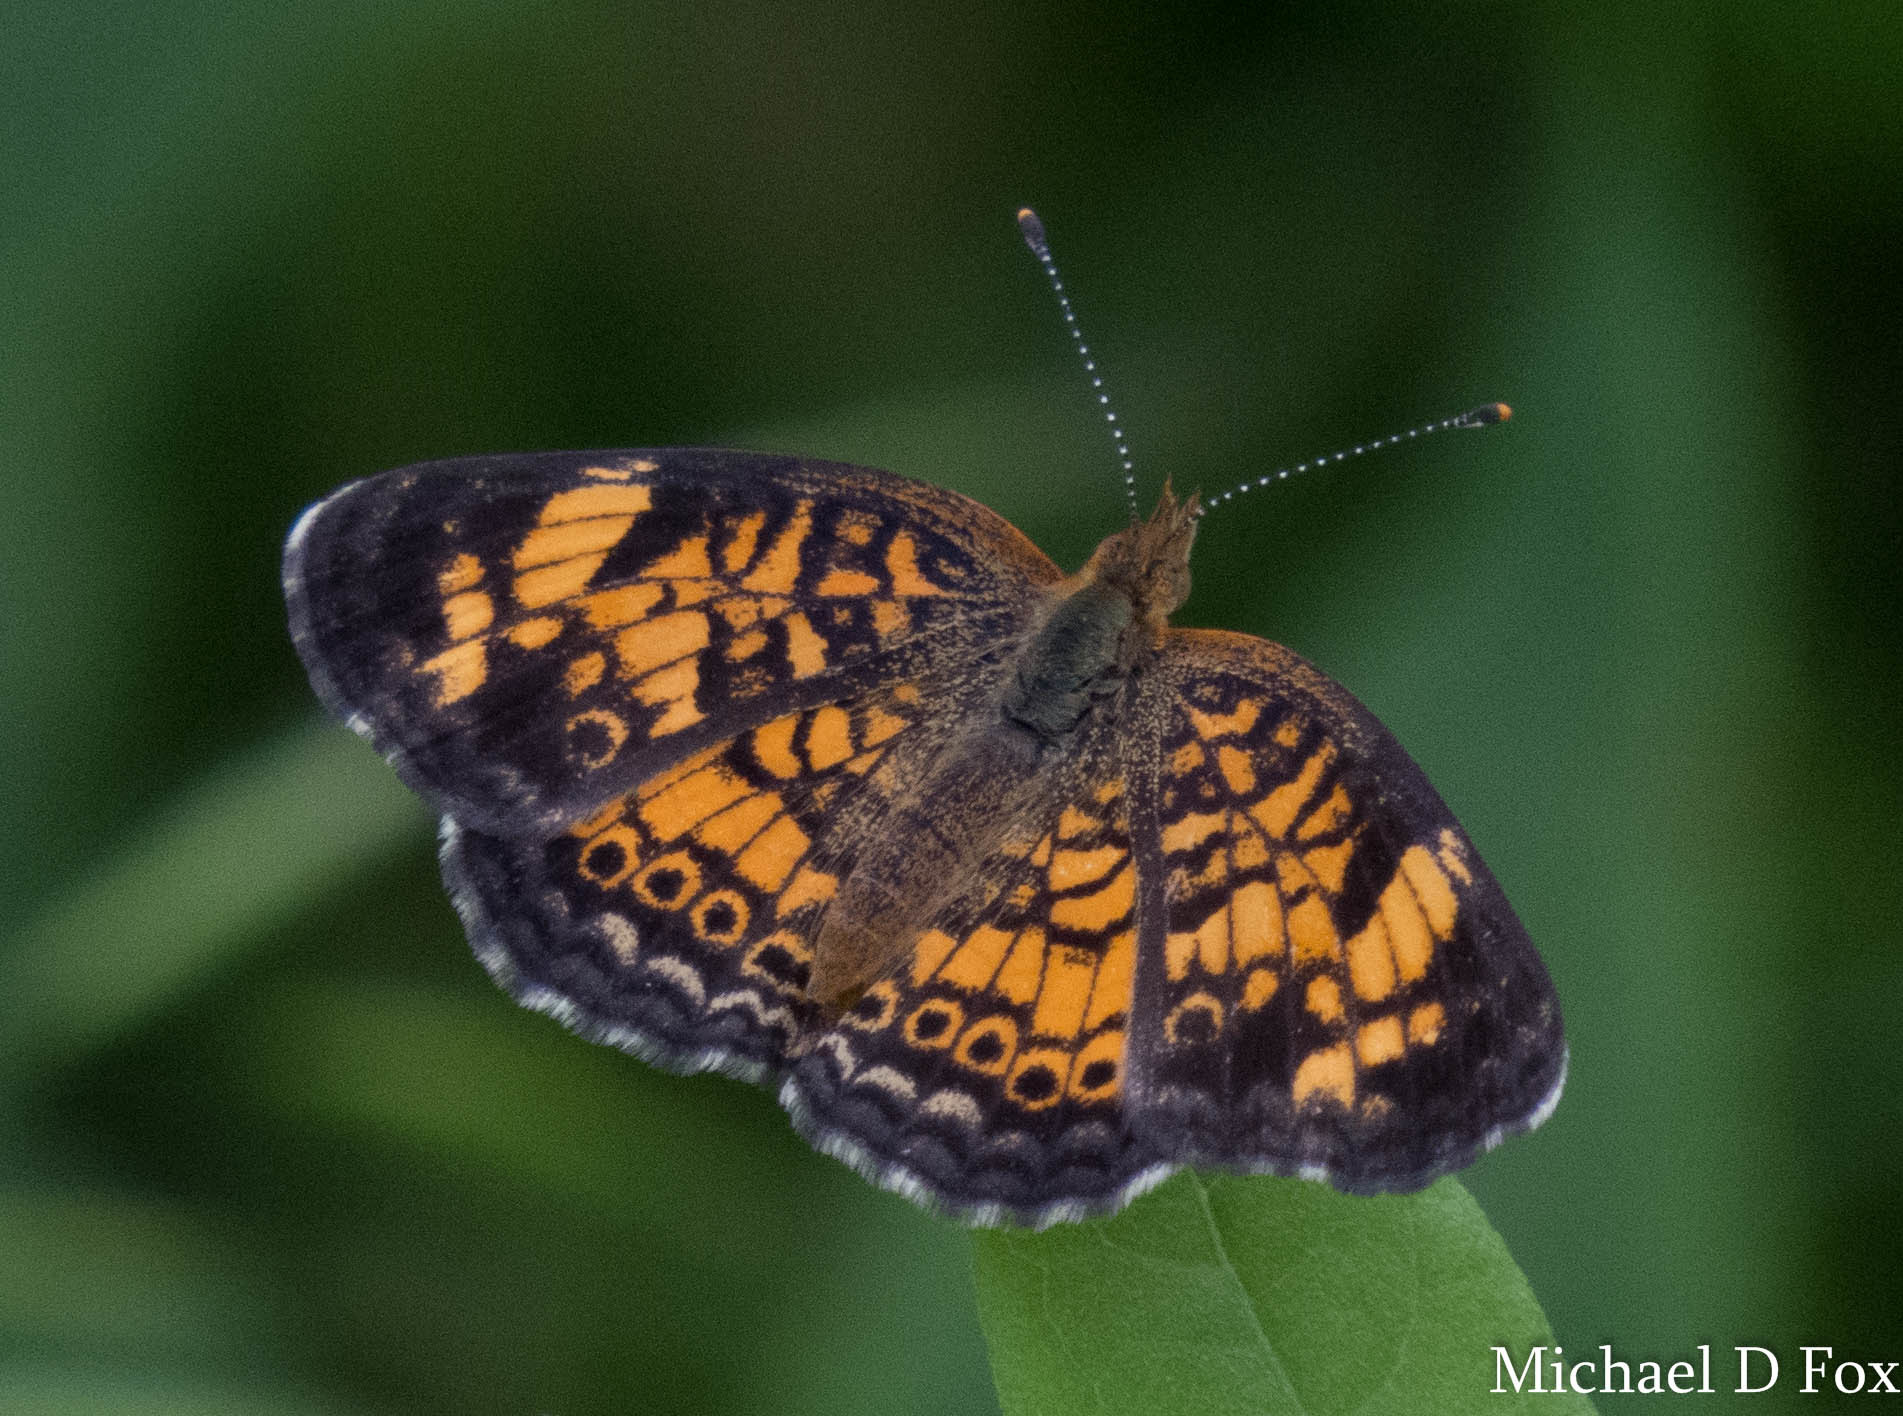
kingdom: Animalia
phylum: Arthropoda
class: Insecta
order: Lepidoptera
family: Nymphalidae
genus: Phyciodes
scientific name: Phyciodes tharos
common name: Pearl crescent
